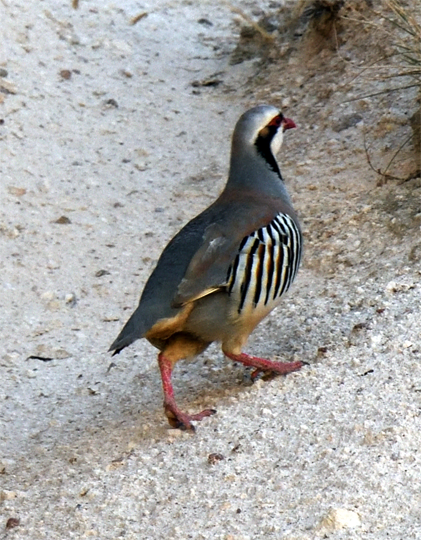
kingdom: Animalia
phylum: Chordata
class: Aves
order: Galliformes
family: Phasianidae
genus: Alectoris
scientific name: Alectoris chukar
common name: Chukar
